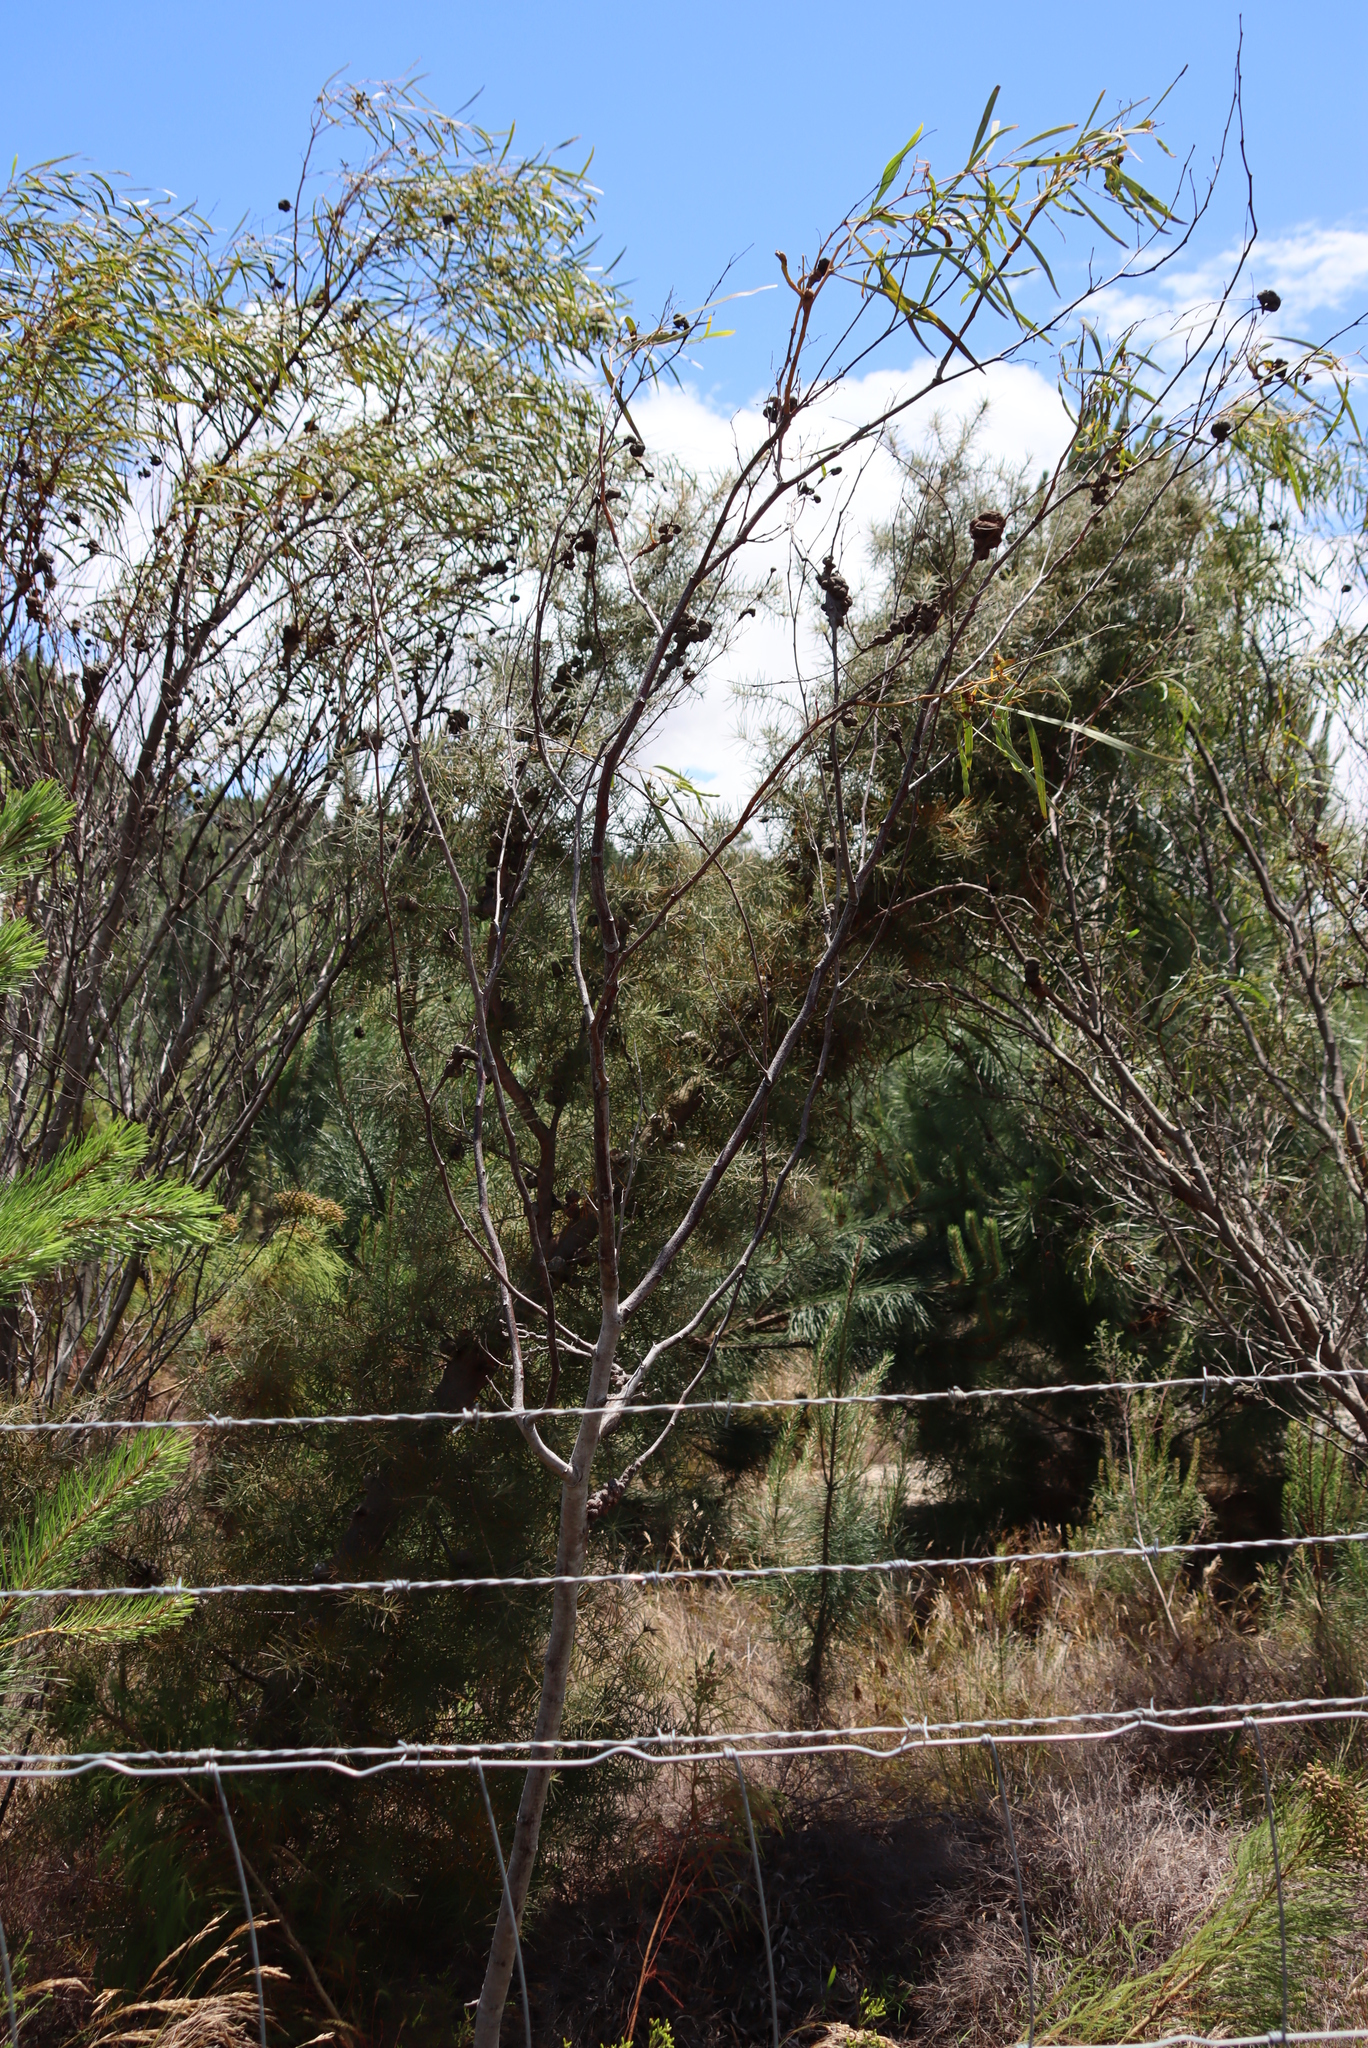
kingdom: Fungi
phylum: Basidiomycota
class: Pucciniomycetes
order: Pucciniales
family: Uromycladiaceae
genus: Uromycladium
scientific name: Uromycladium morrisii
